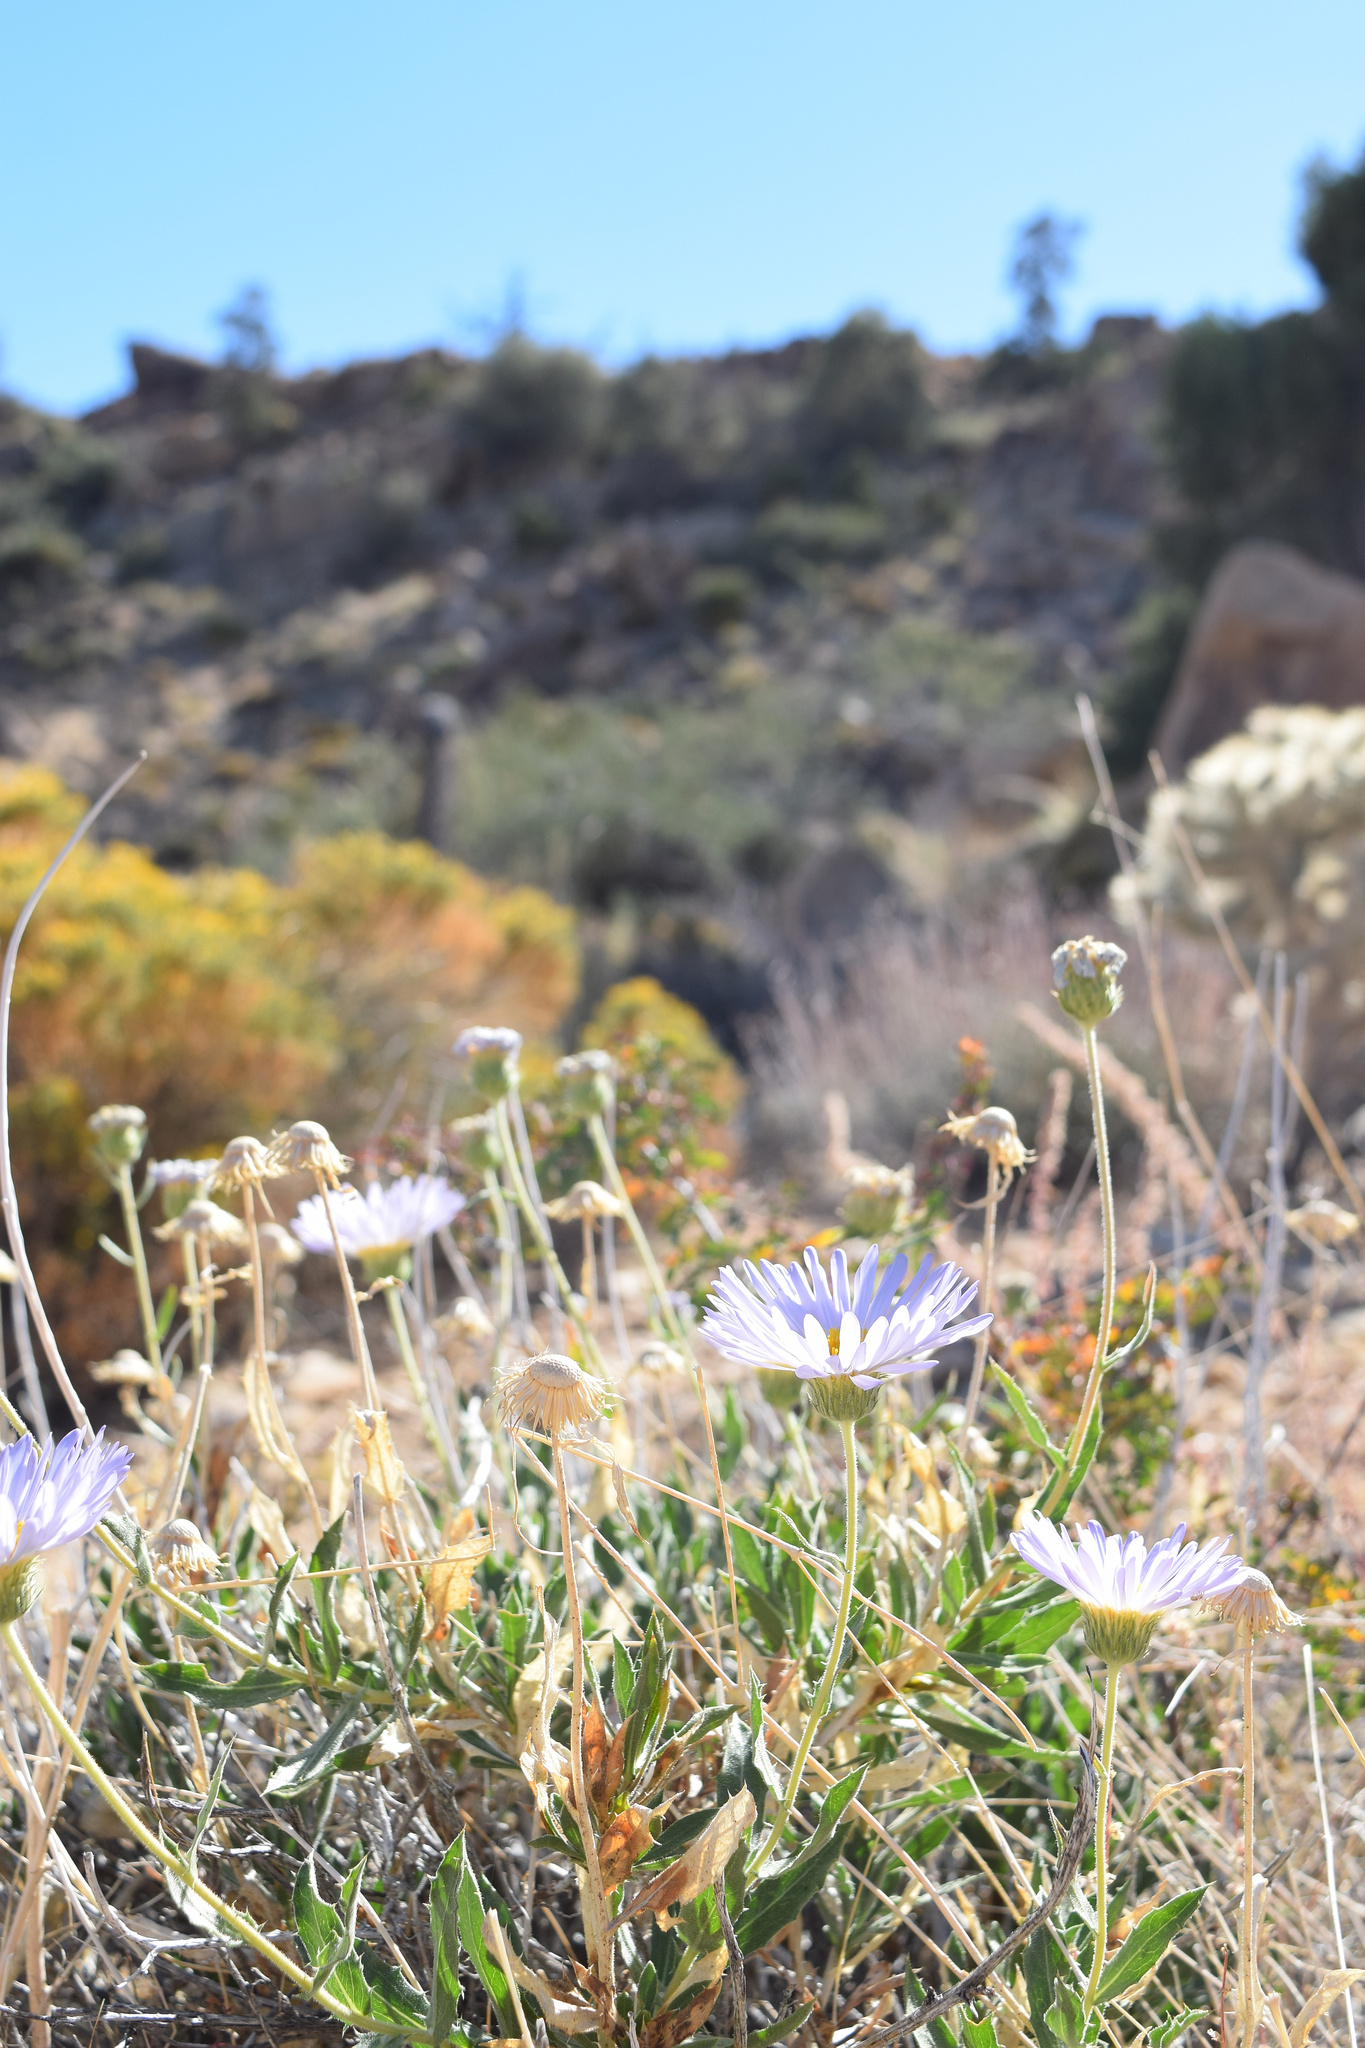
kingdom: Plantae
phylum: Tracheophyta
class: Magnoliopsida
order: Asterales
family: Asteraceae
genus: Xylorhiza
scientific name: Xylorhiza tortifolia
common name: Hurt-leaf woody-aster
